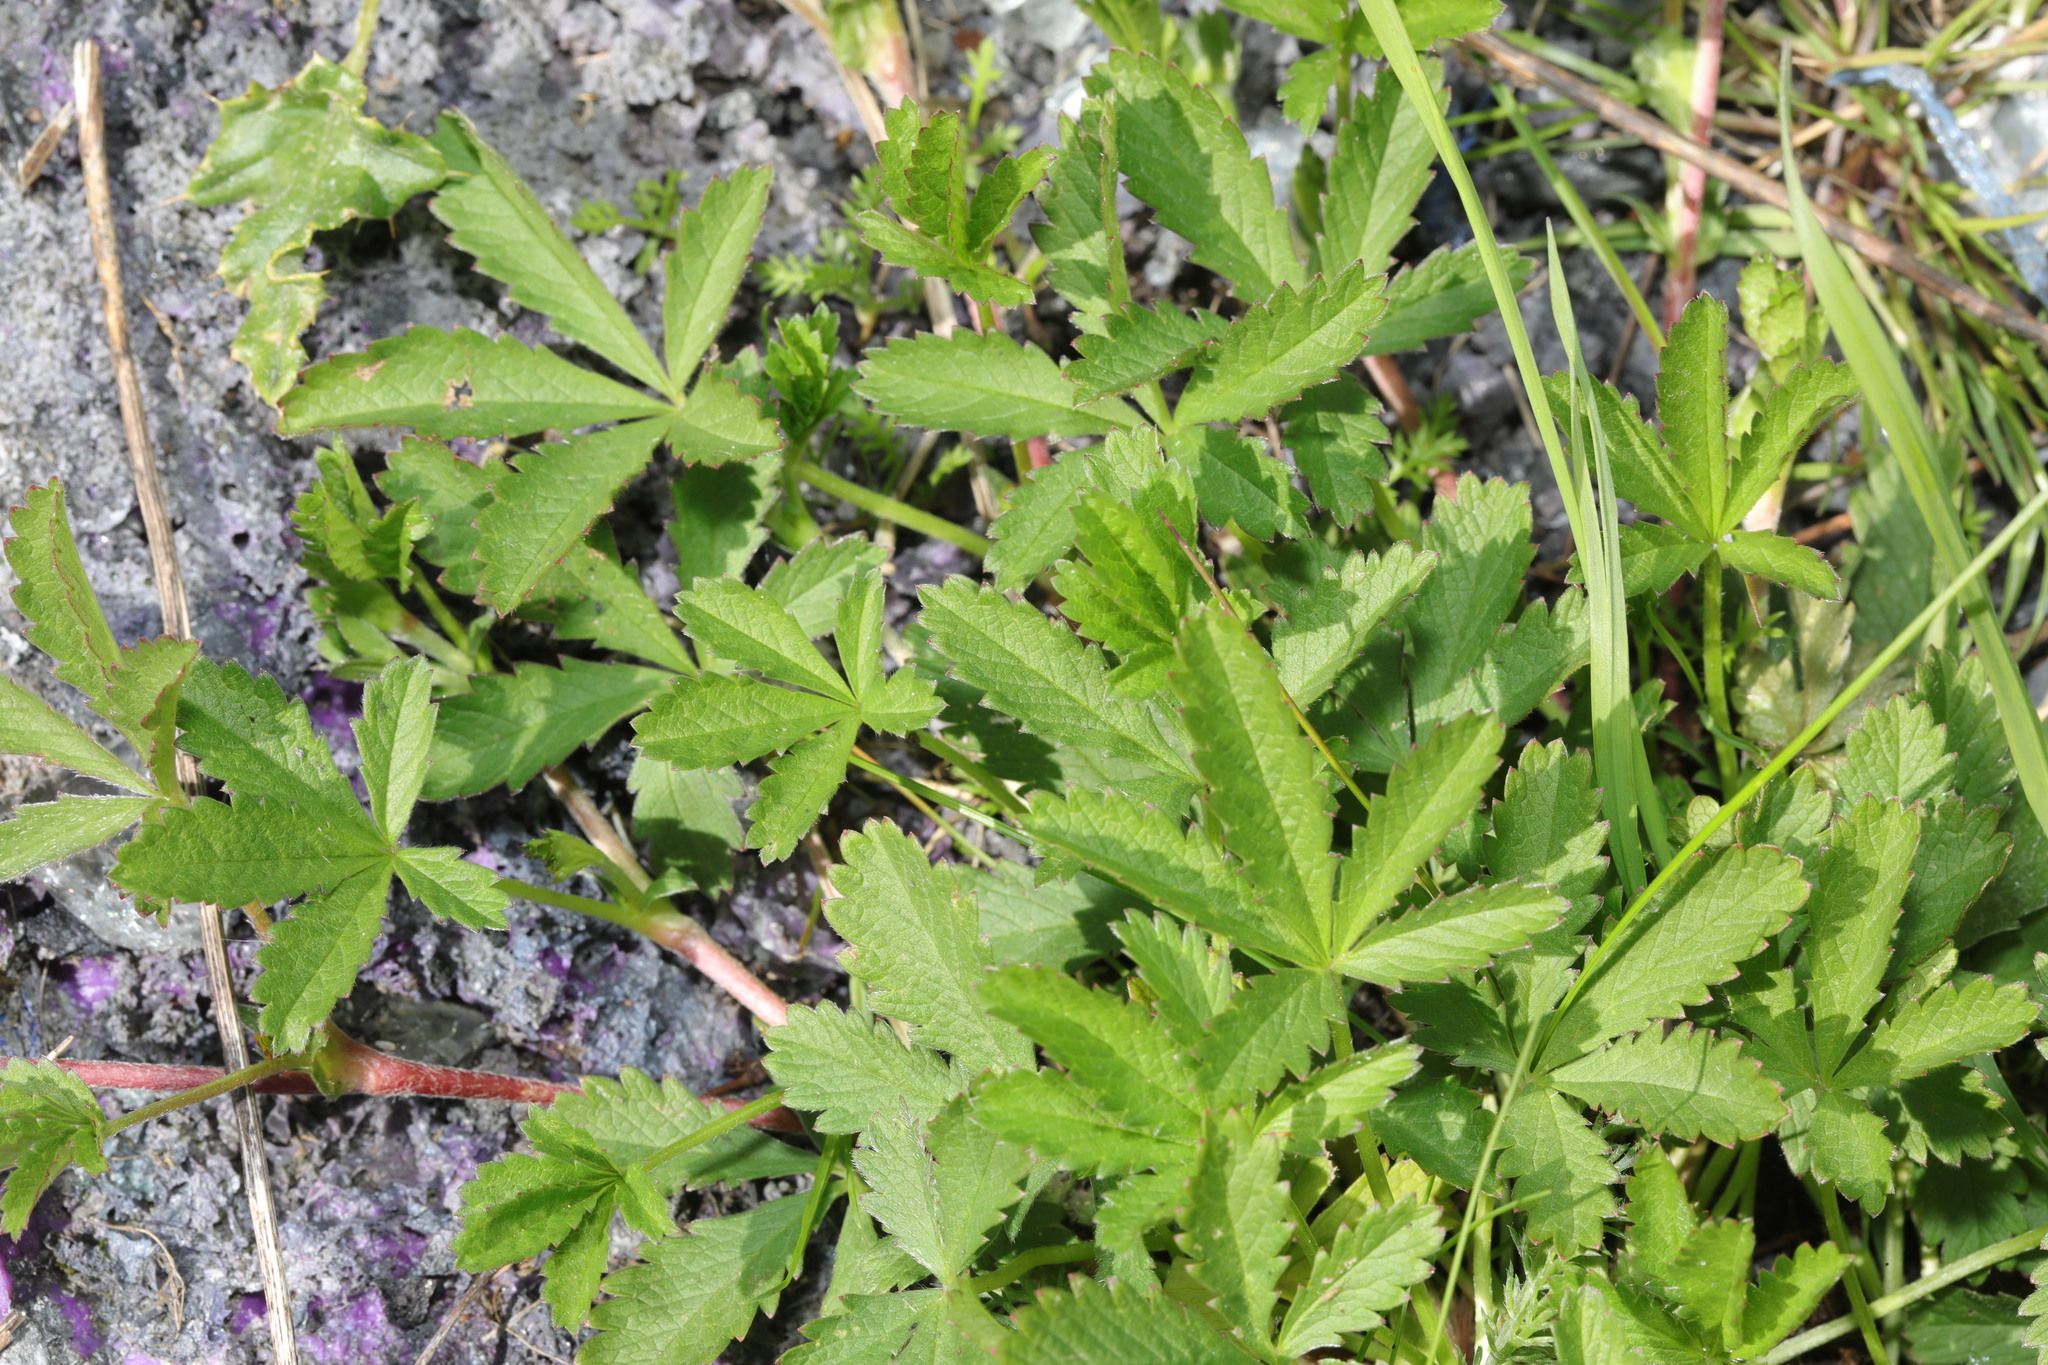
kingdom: Plantae
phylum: Tracheophyta
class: Magnoliopsida
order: Rosales
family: Rosaceae
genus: Potentilla
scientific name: Potentilla reptans
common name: Creeping cinquefoil
